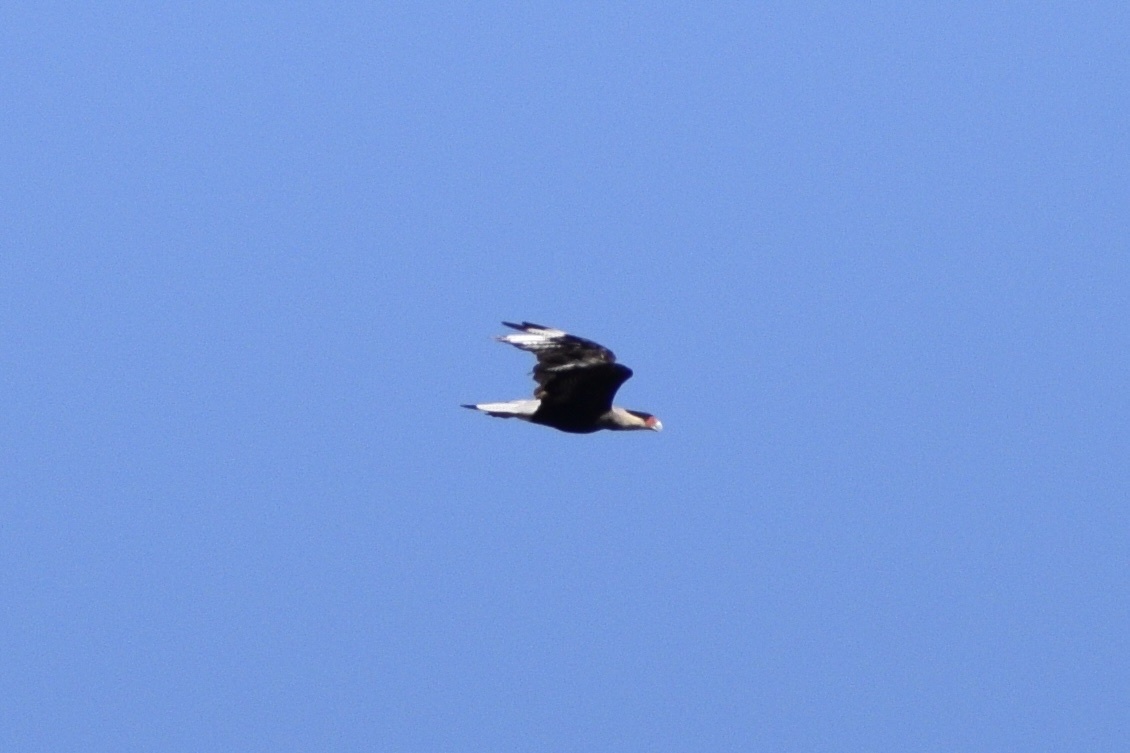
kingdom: Animalia
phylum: Chordata
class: Aves
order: Falconiformes
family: Falconidae
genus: Caracara
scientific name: Caracara plancus
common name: Southern caracara
